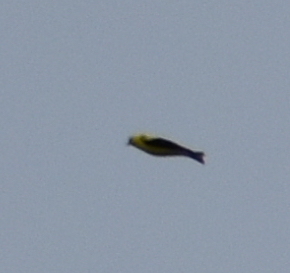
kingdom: Animalia
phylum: Chordata
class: Aves
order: Passeriformes
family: Fringillidae
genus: Spinus
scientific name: Spinus tristis
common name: American goldfinch
